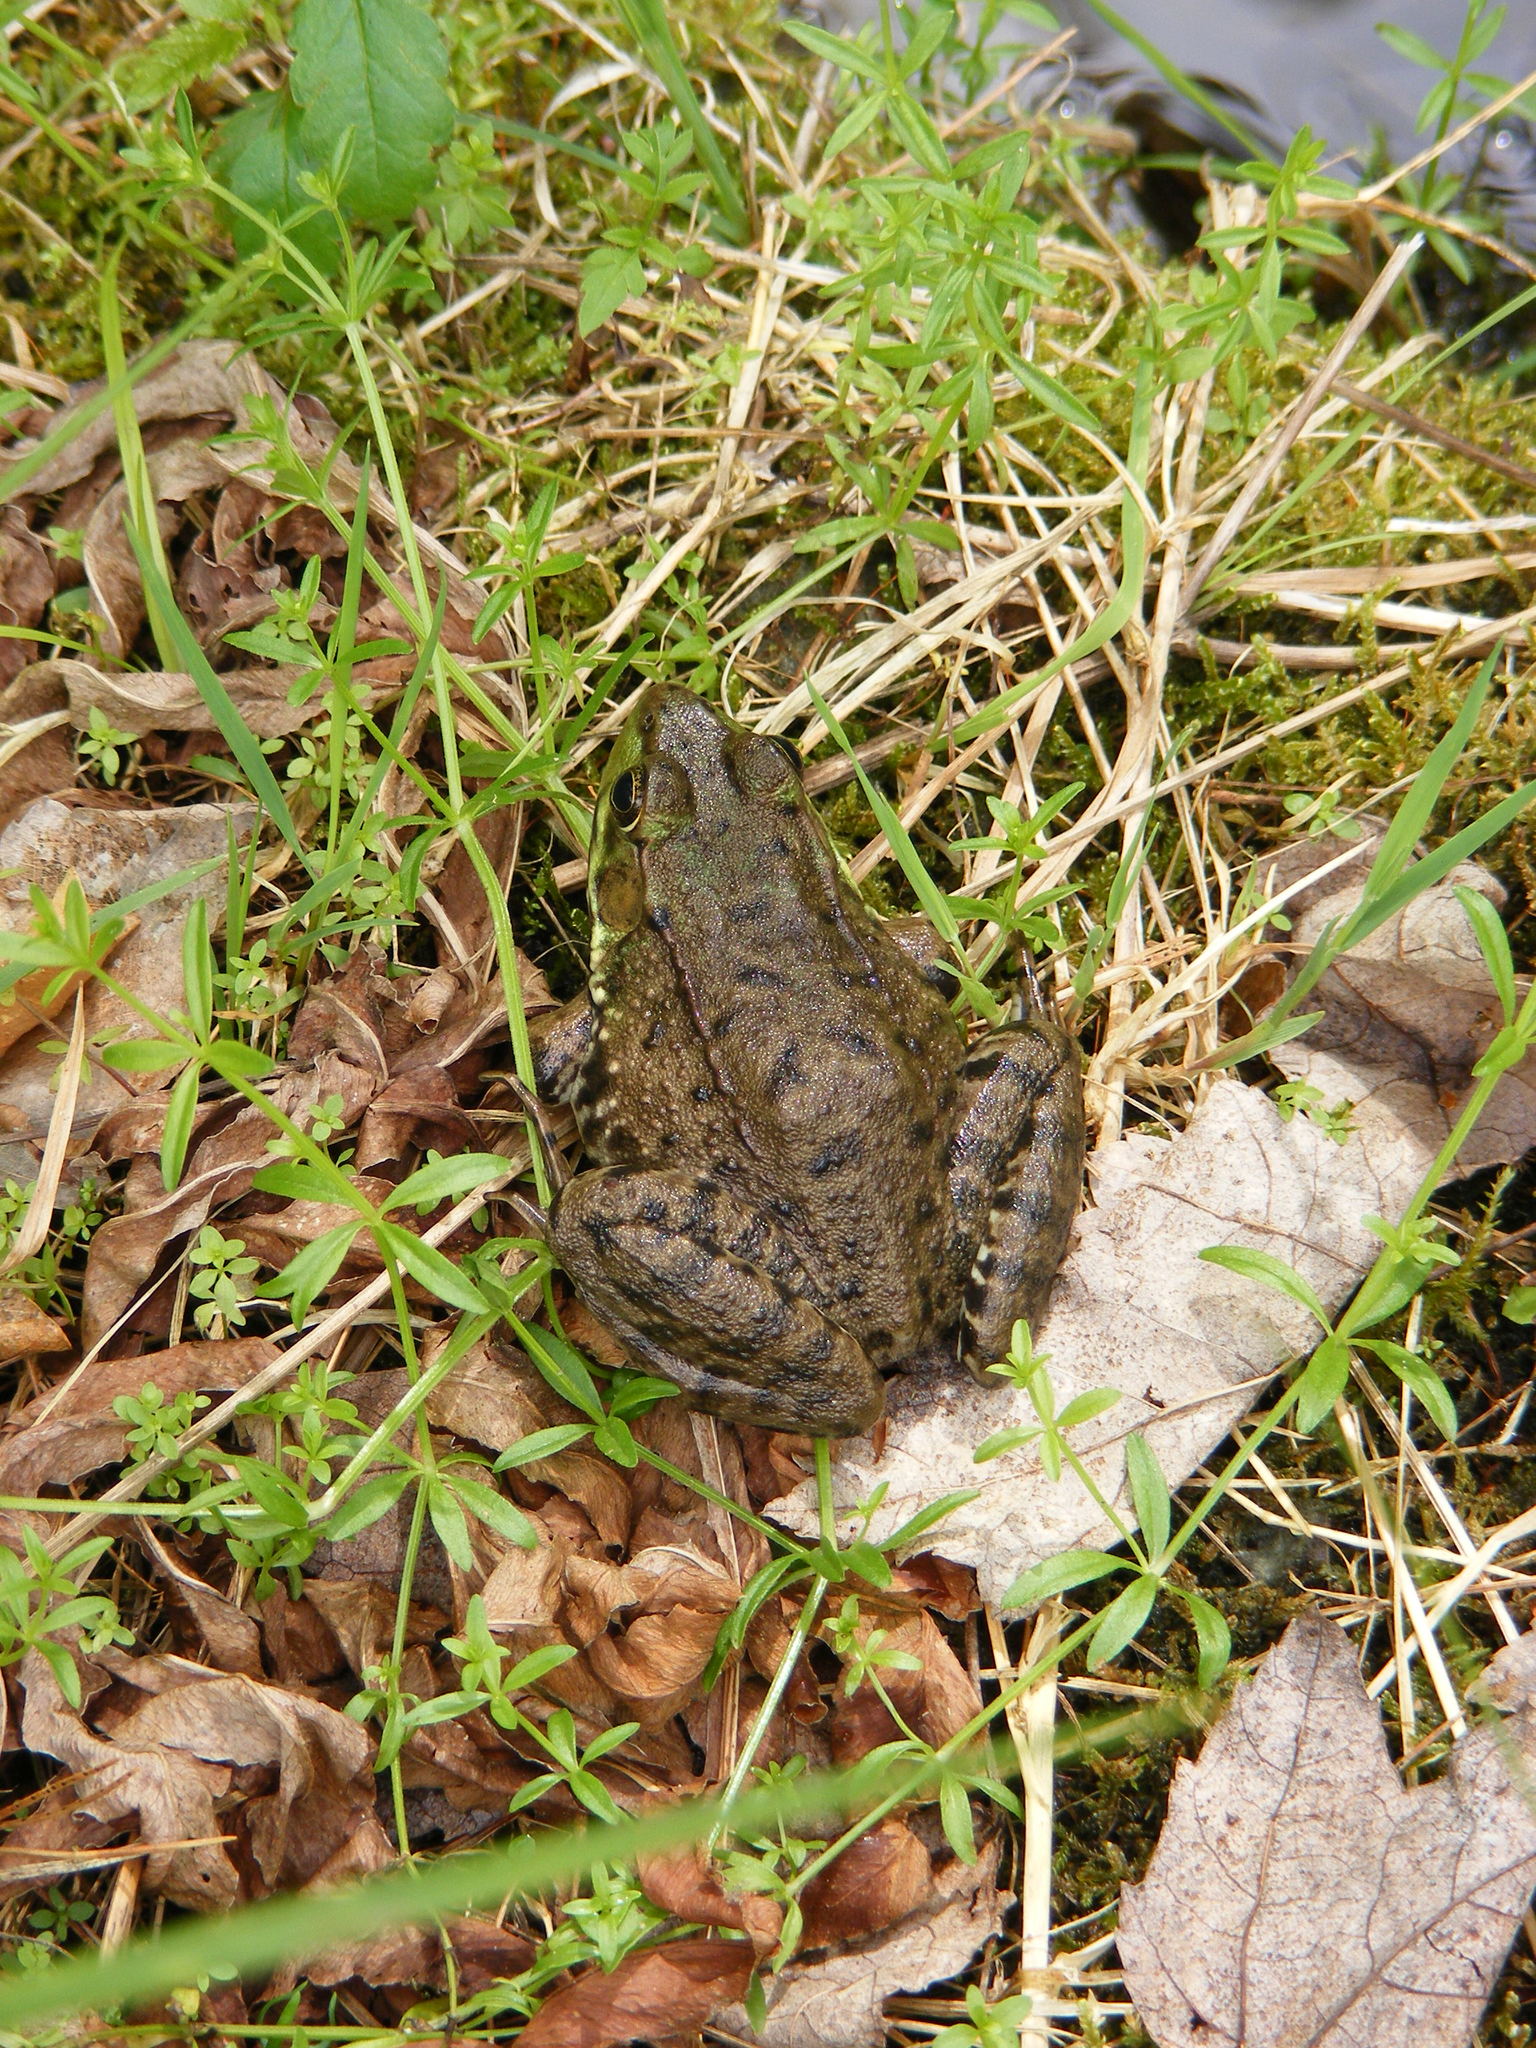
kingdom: Animalia
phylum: Chordata
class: Amphibia
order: Anura
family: Ranidae
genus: Lithobates
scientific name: Lithobates clamitans
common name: Green frog
